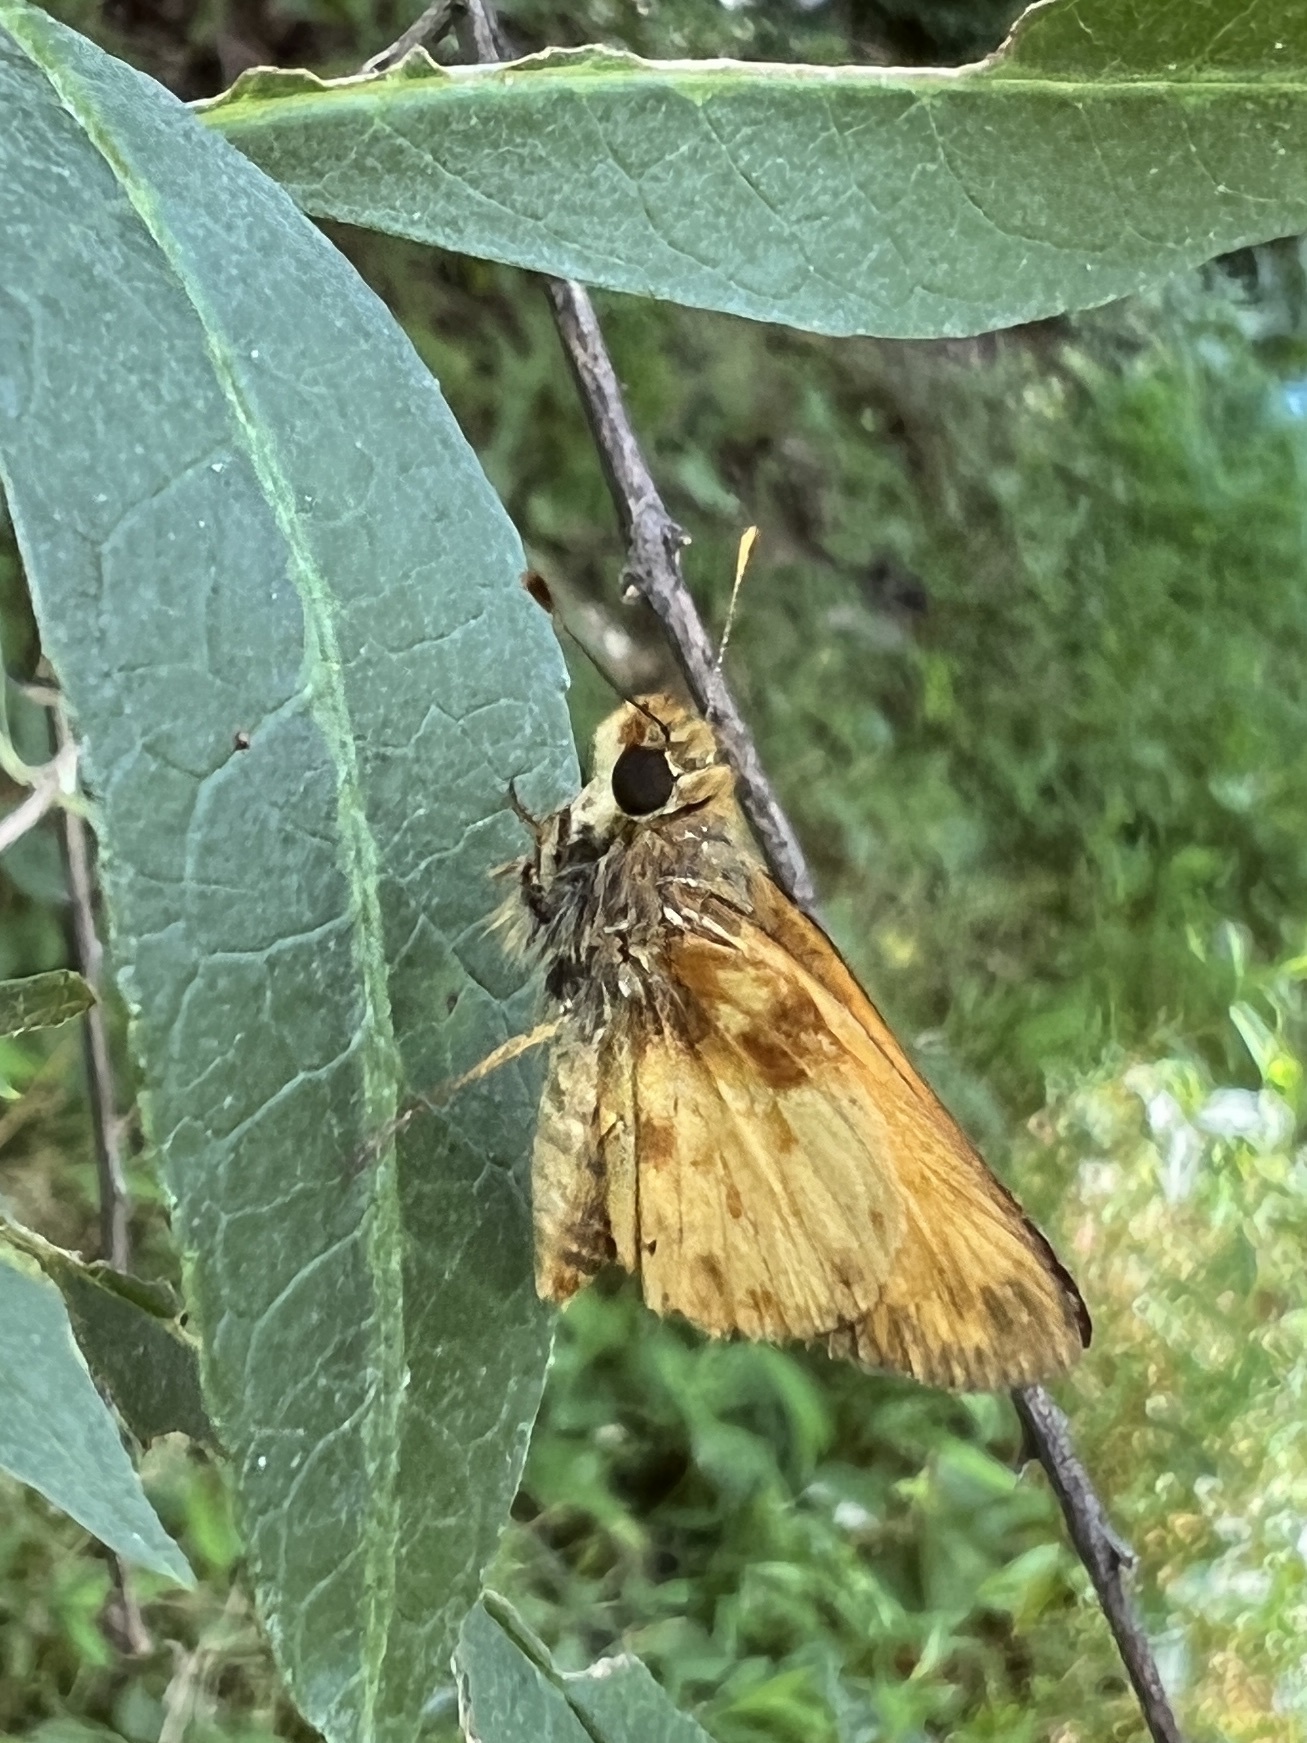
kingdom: Animalia
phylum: Arthropoda
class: Insecta
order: Lepidoptera
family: Hesperiidae
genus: Lon
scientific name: Lon zabulon
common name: Zabulon skipper
